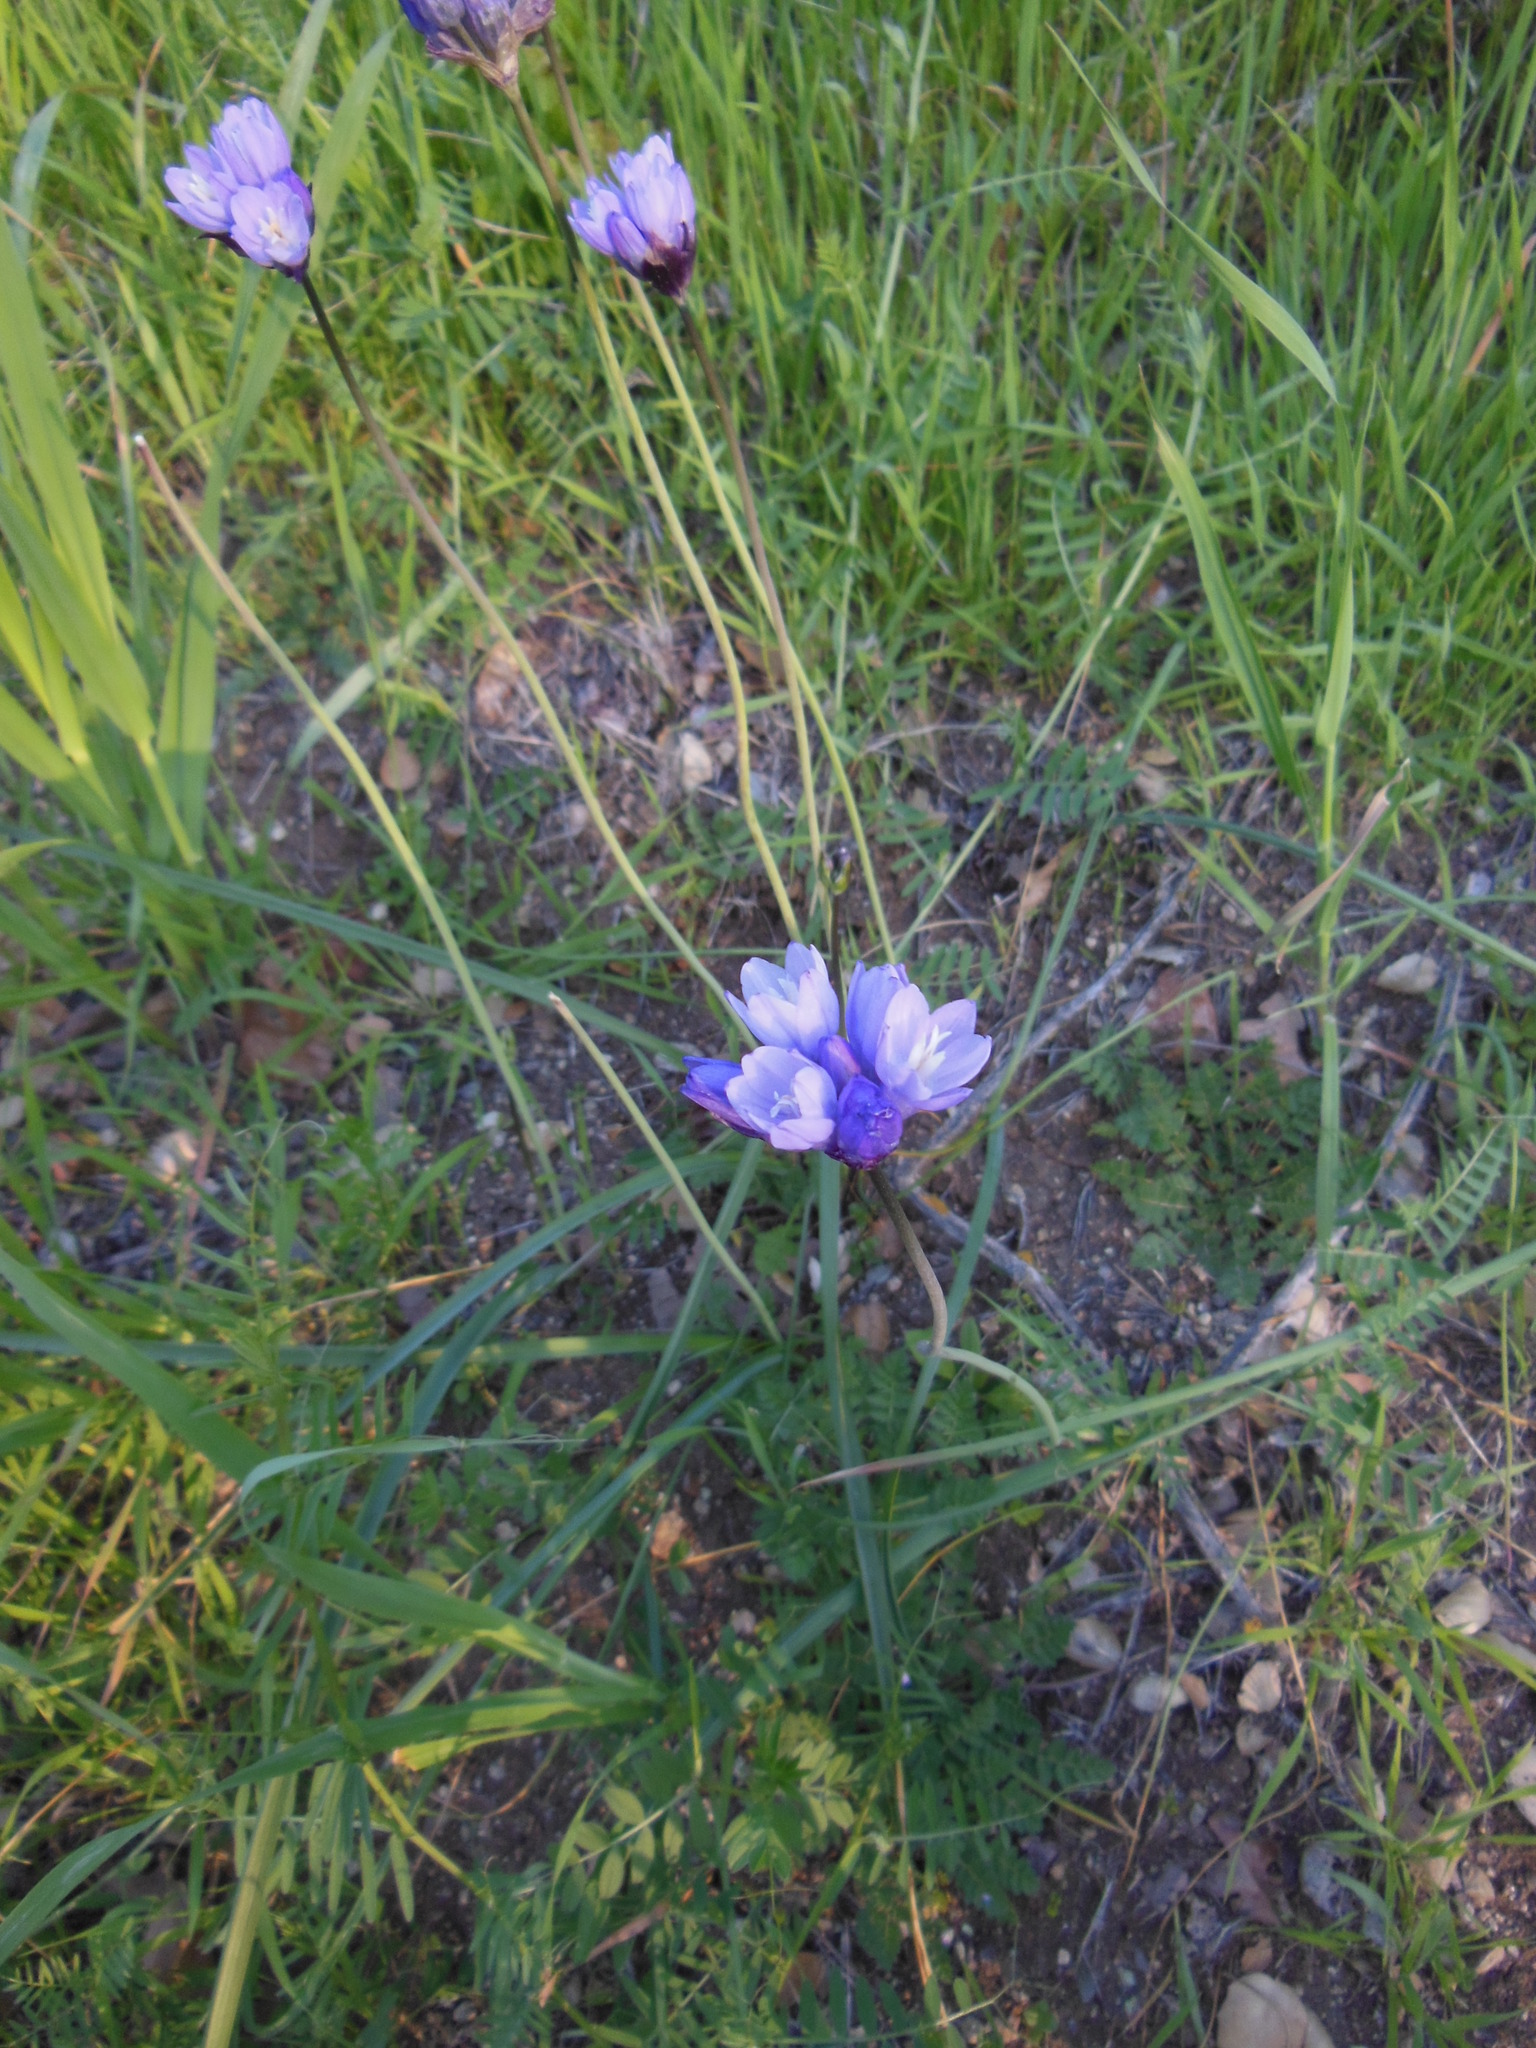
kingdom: Plantae
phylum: Tracheophyta
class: Liliopsida
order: Asparagales
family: Asparagaceae
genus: Dipterostemon
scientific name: Dipterostemon capitatus
